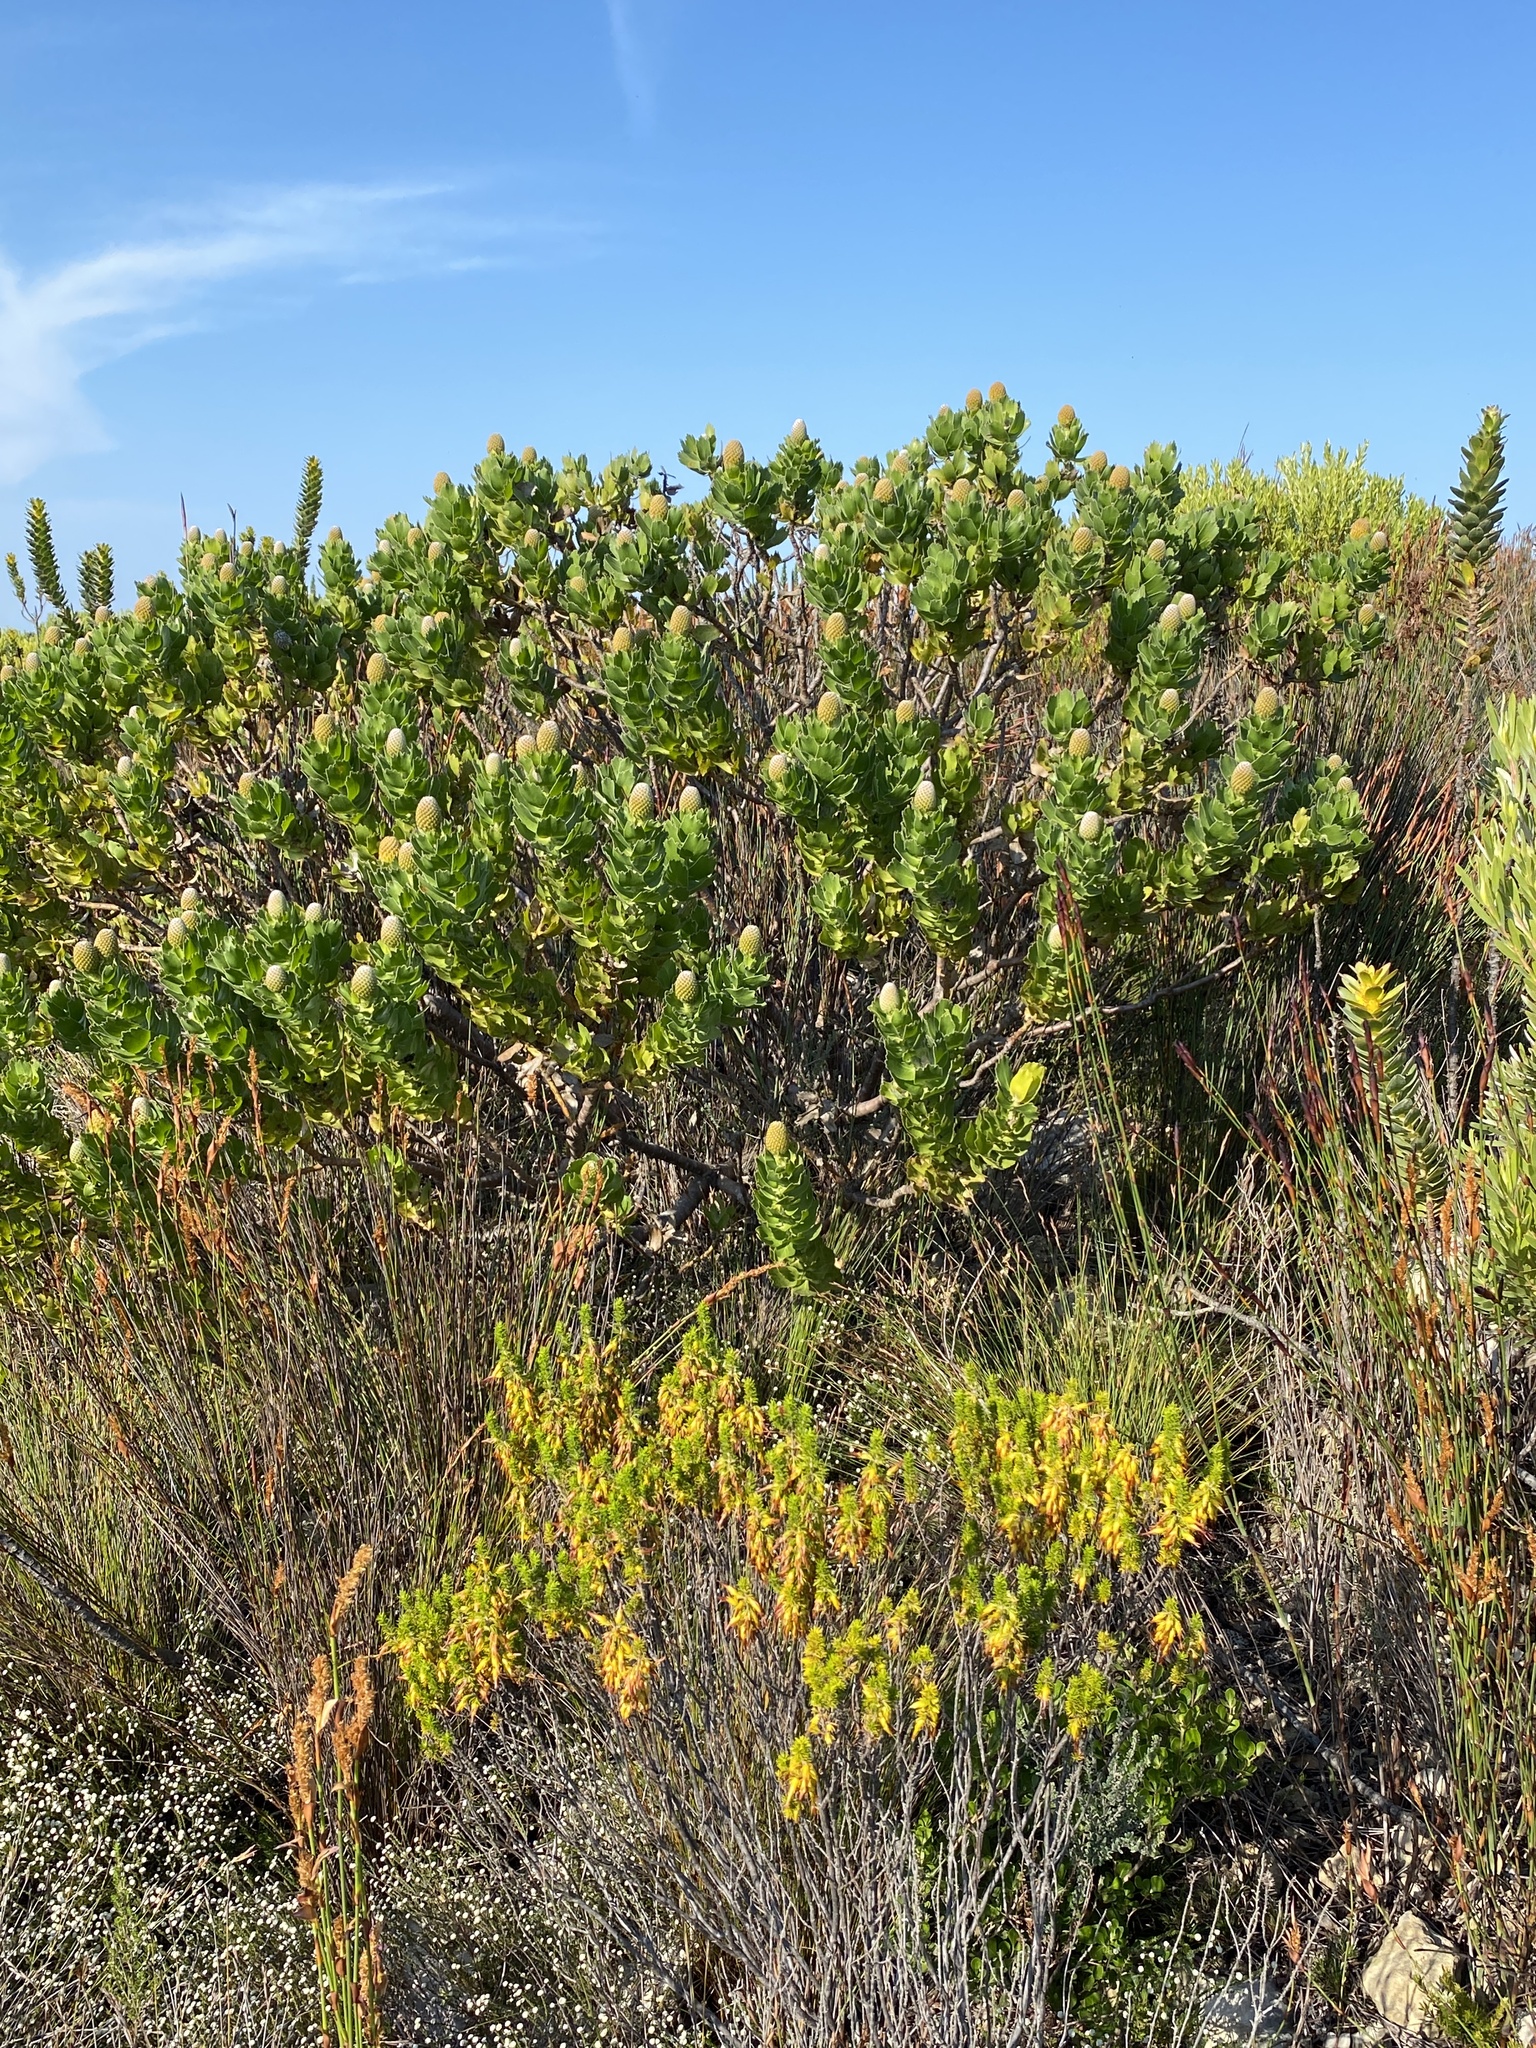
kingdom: Plantae
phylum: Tracheophyta
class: Magnoliopsida
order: Proteales
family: Proteaceae
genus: Leucospermum
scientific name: Leucospermum patersonii
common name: False tree pincushion
